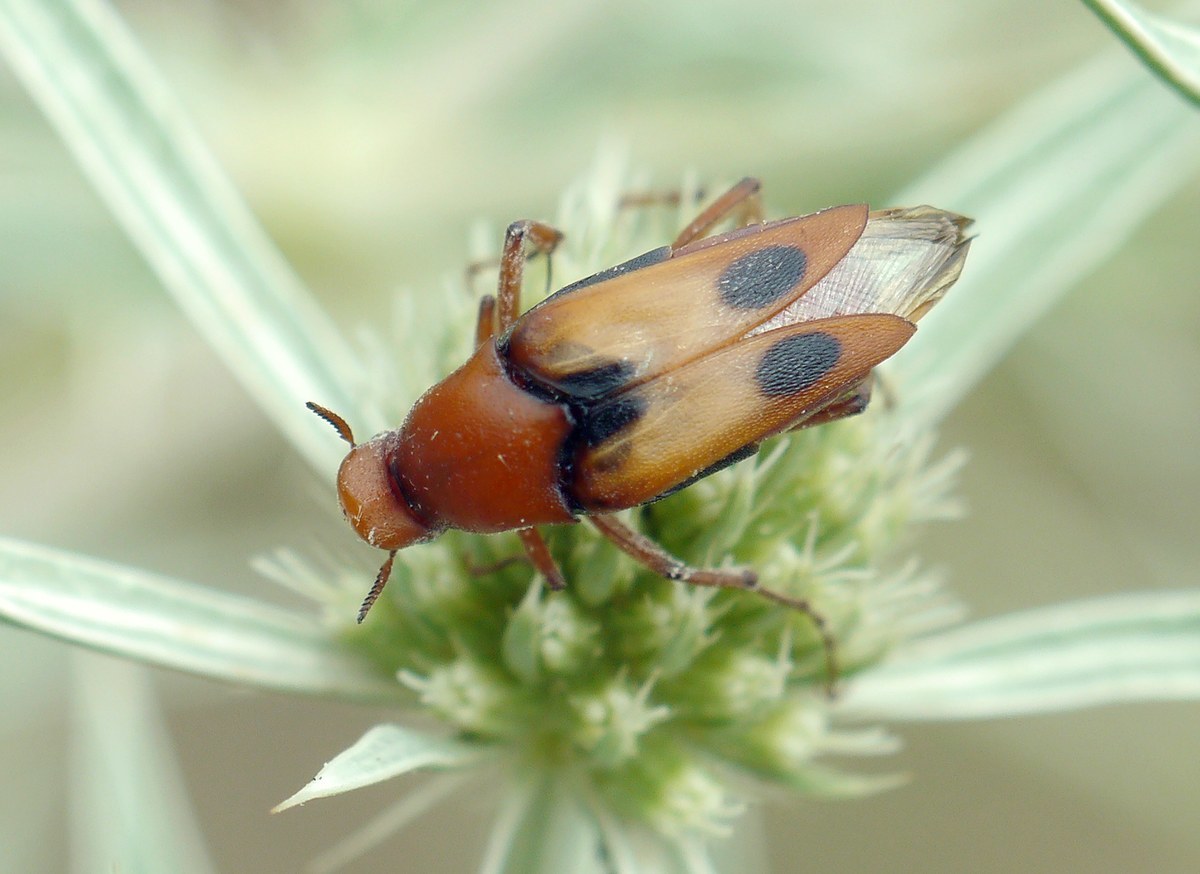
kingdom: Animalia
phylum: Arthropoda
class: Insecta
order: Coleoptera
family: Ripiphoridae
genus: Macrosiagon
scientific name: Macrosiagon bimaculata
